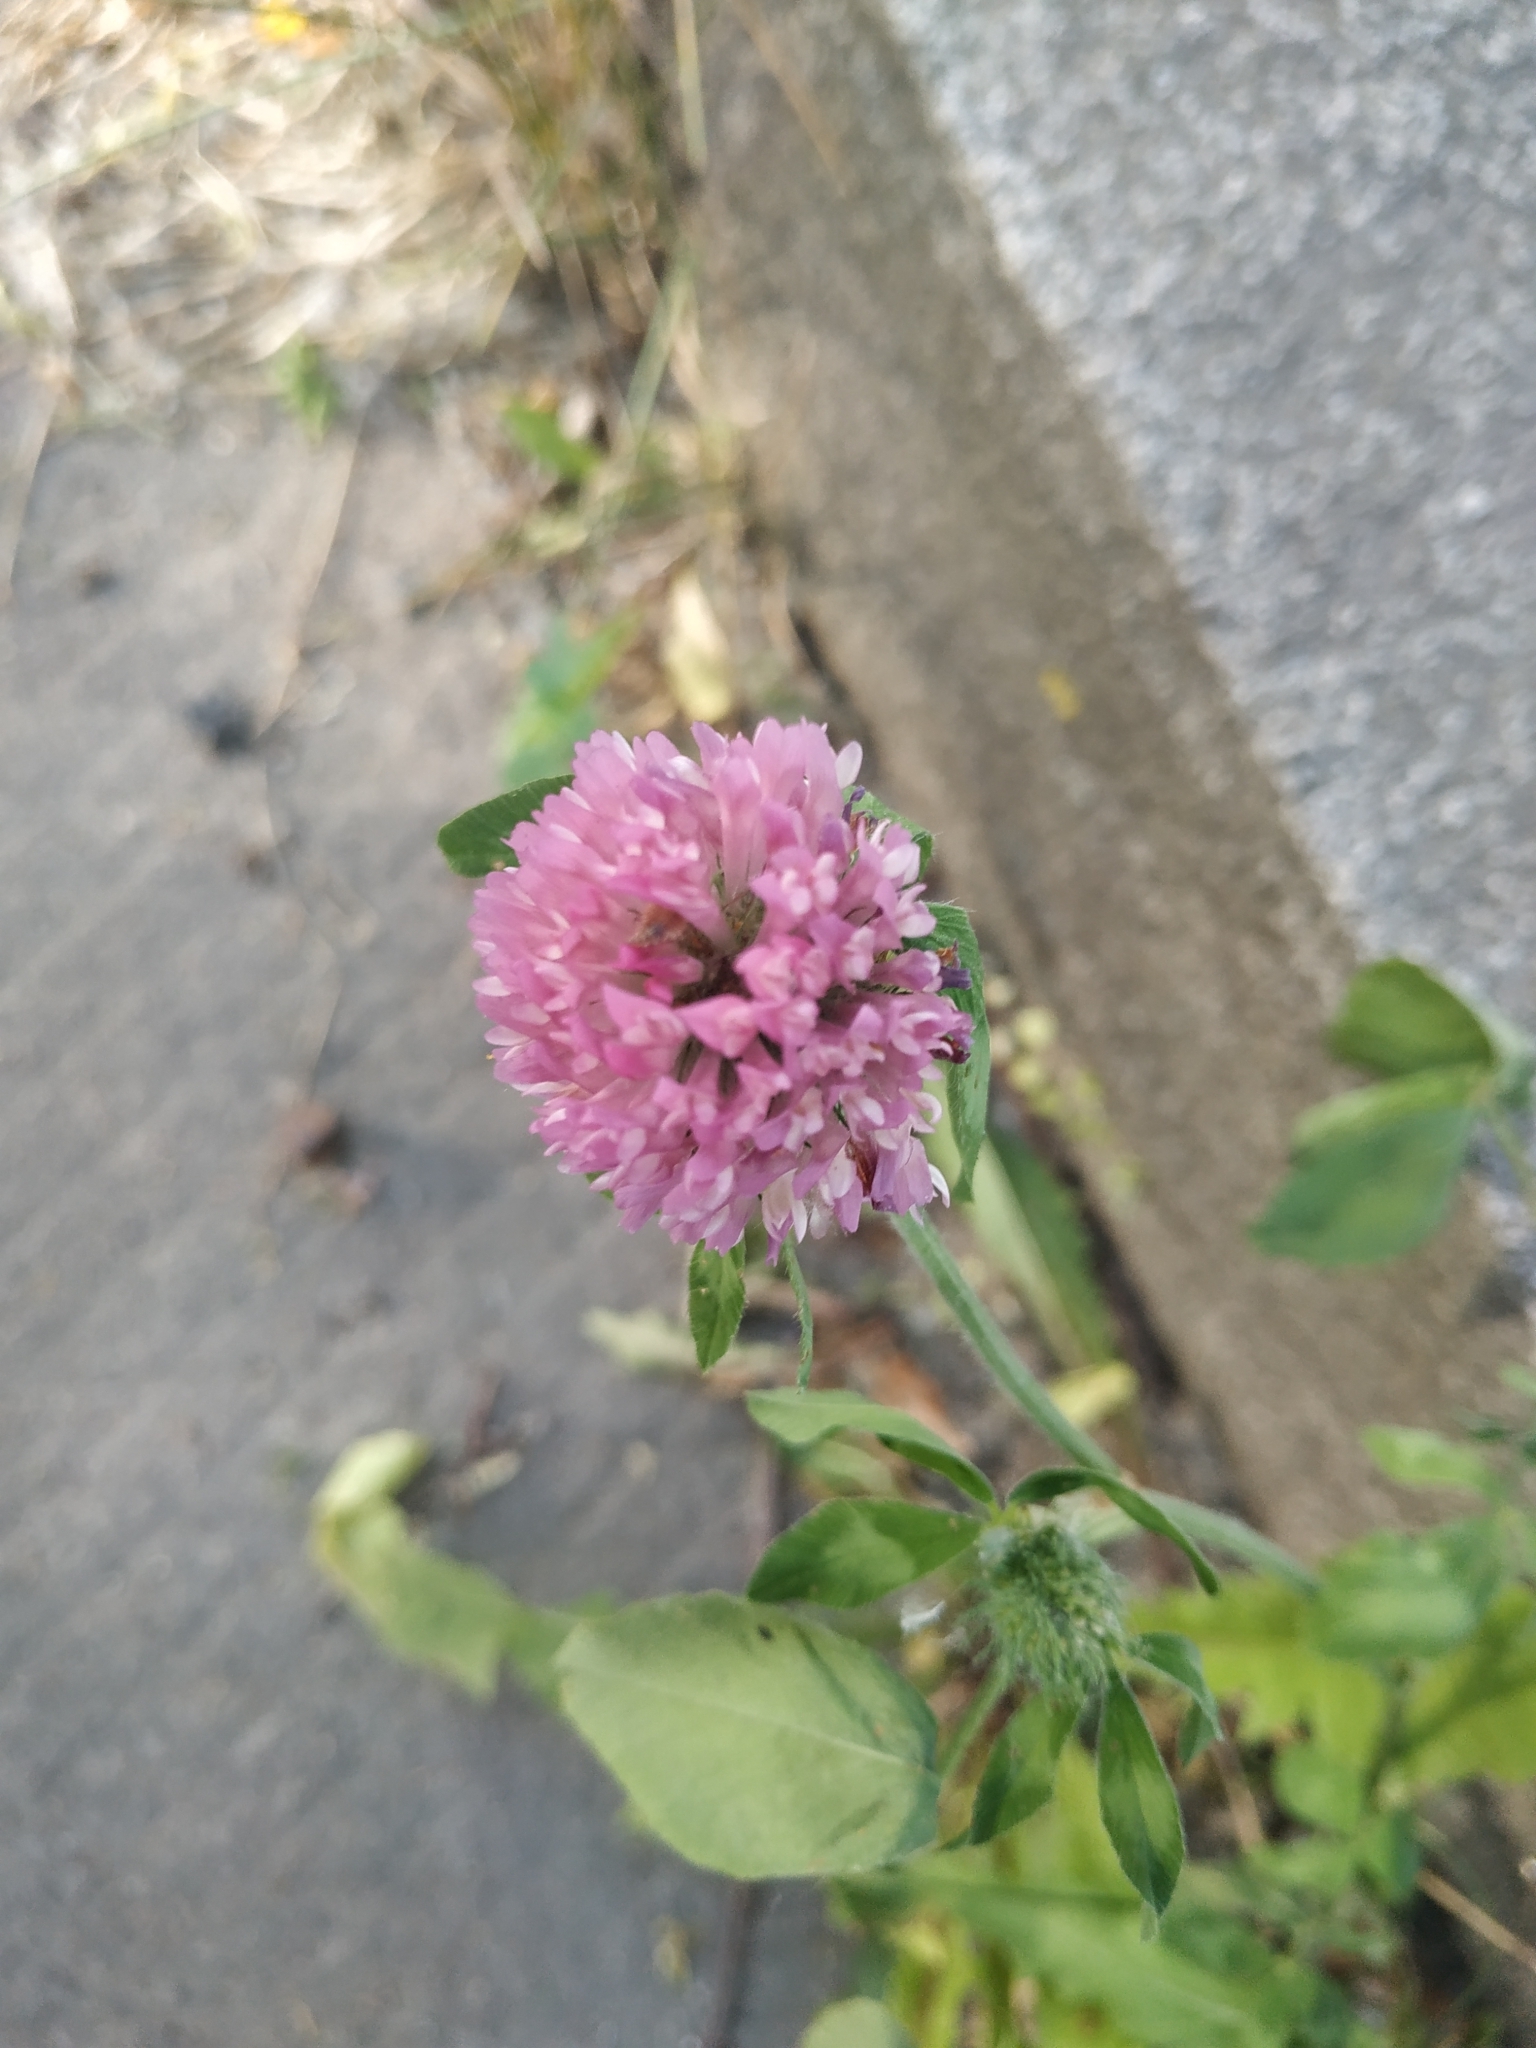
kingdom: Plantae
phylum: Tracheophyta
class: Magnoliopsida
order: Fabales
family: Fabaceae
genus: Trifolium
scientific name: Trifolium pratense
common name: Red clover
